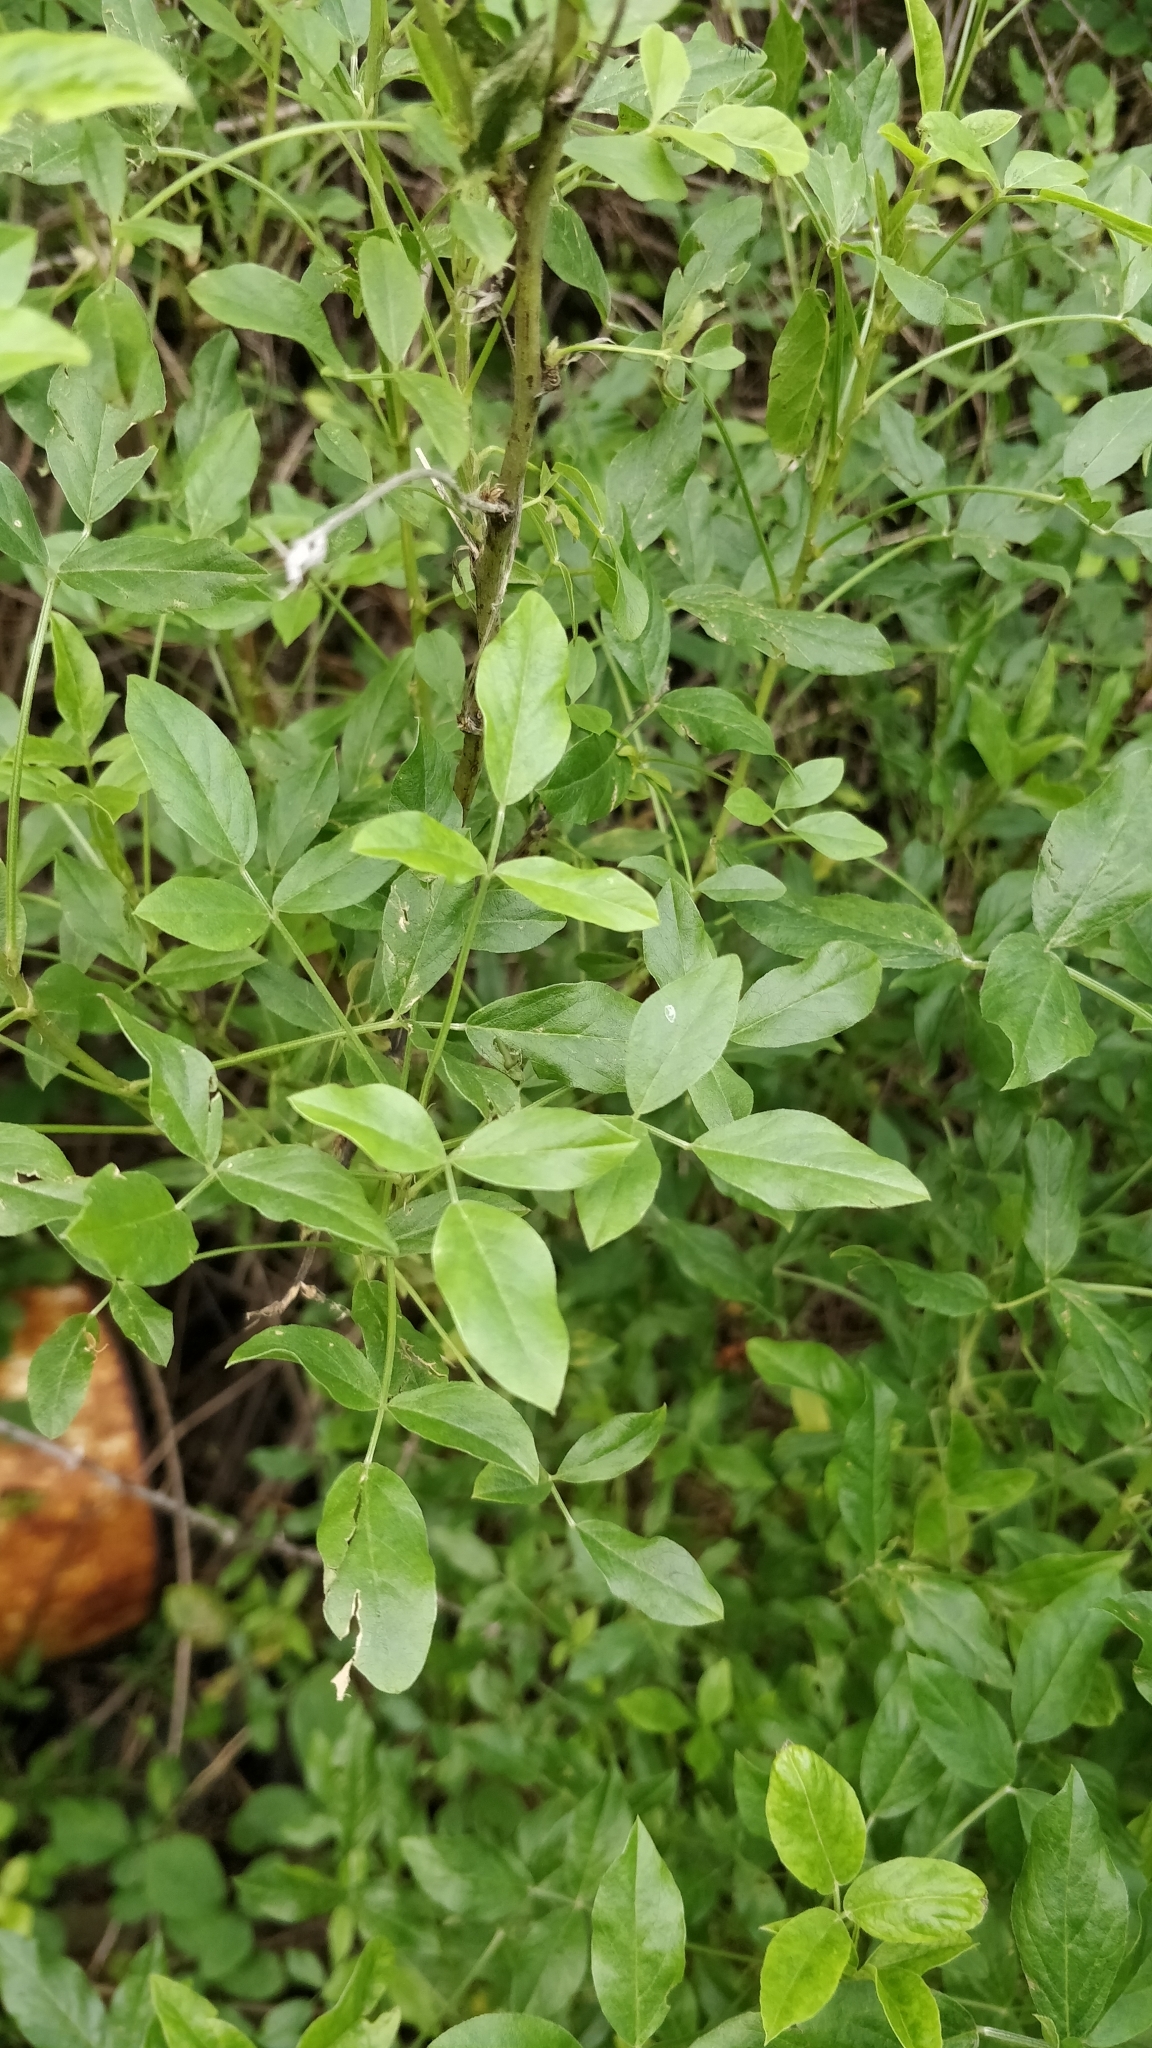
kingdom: Plantae
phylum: Tracheophyta
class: Magnoliopsida
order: Fabales
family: Fabaceae
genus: Bituminaria
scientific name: Bituminaria bituminosa
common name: Arabian pea
